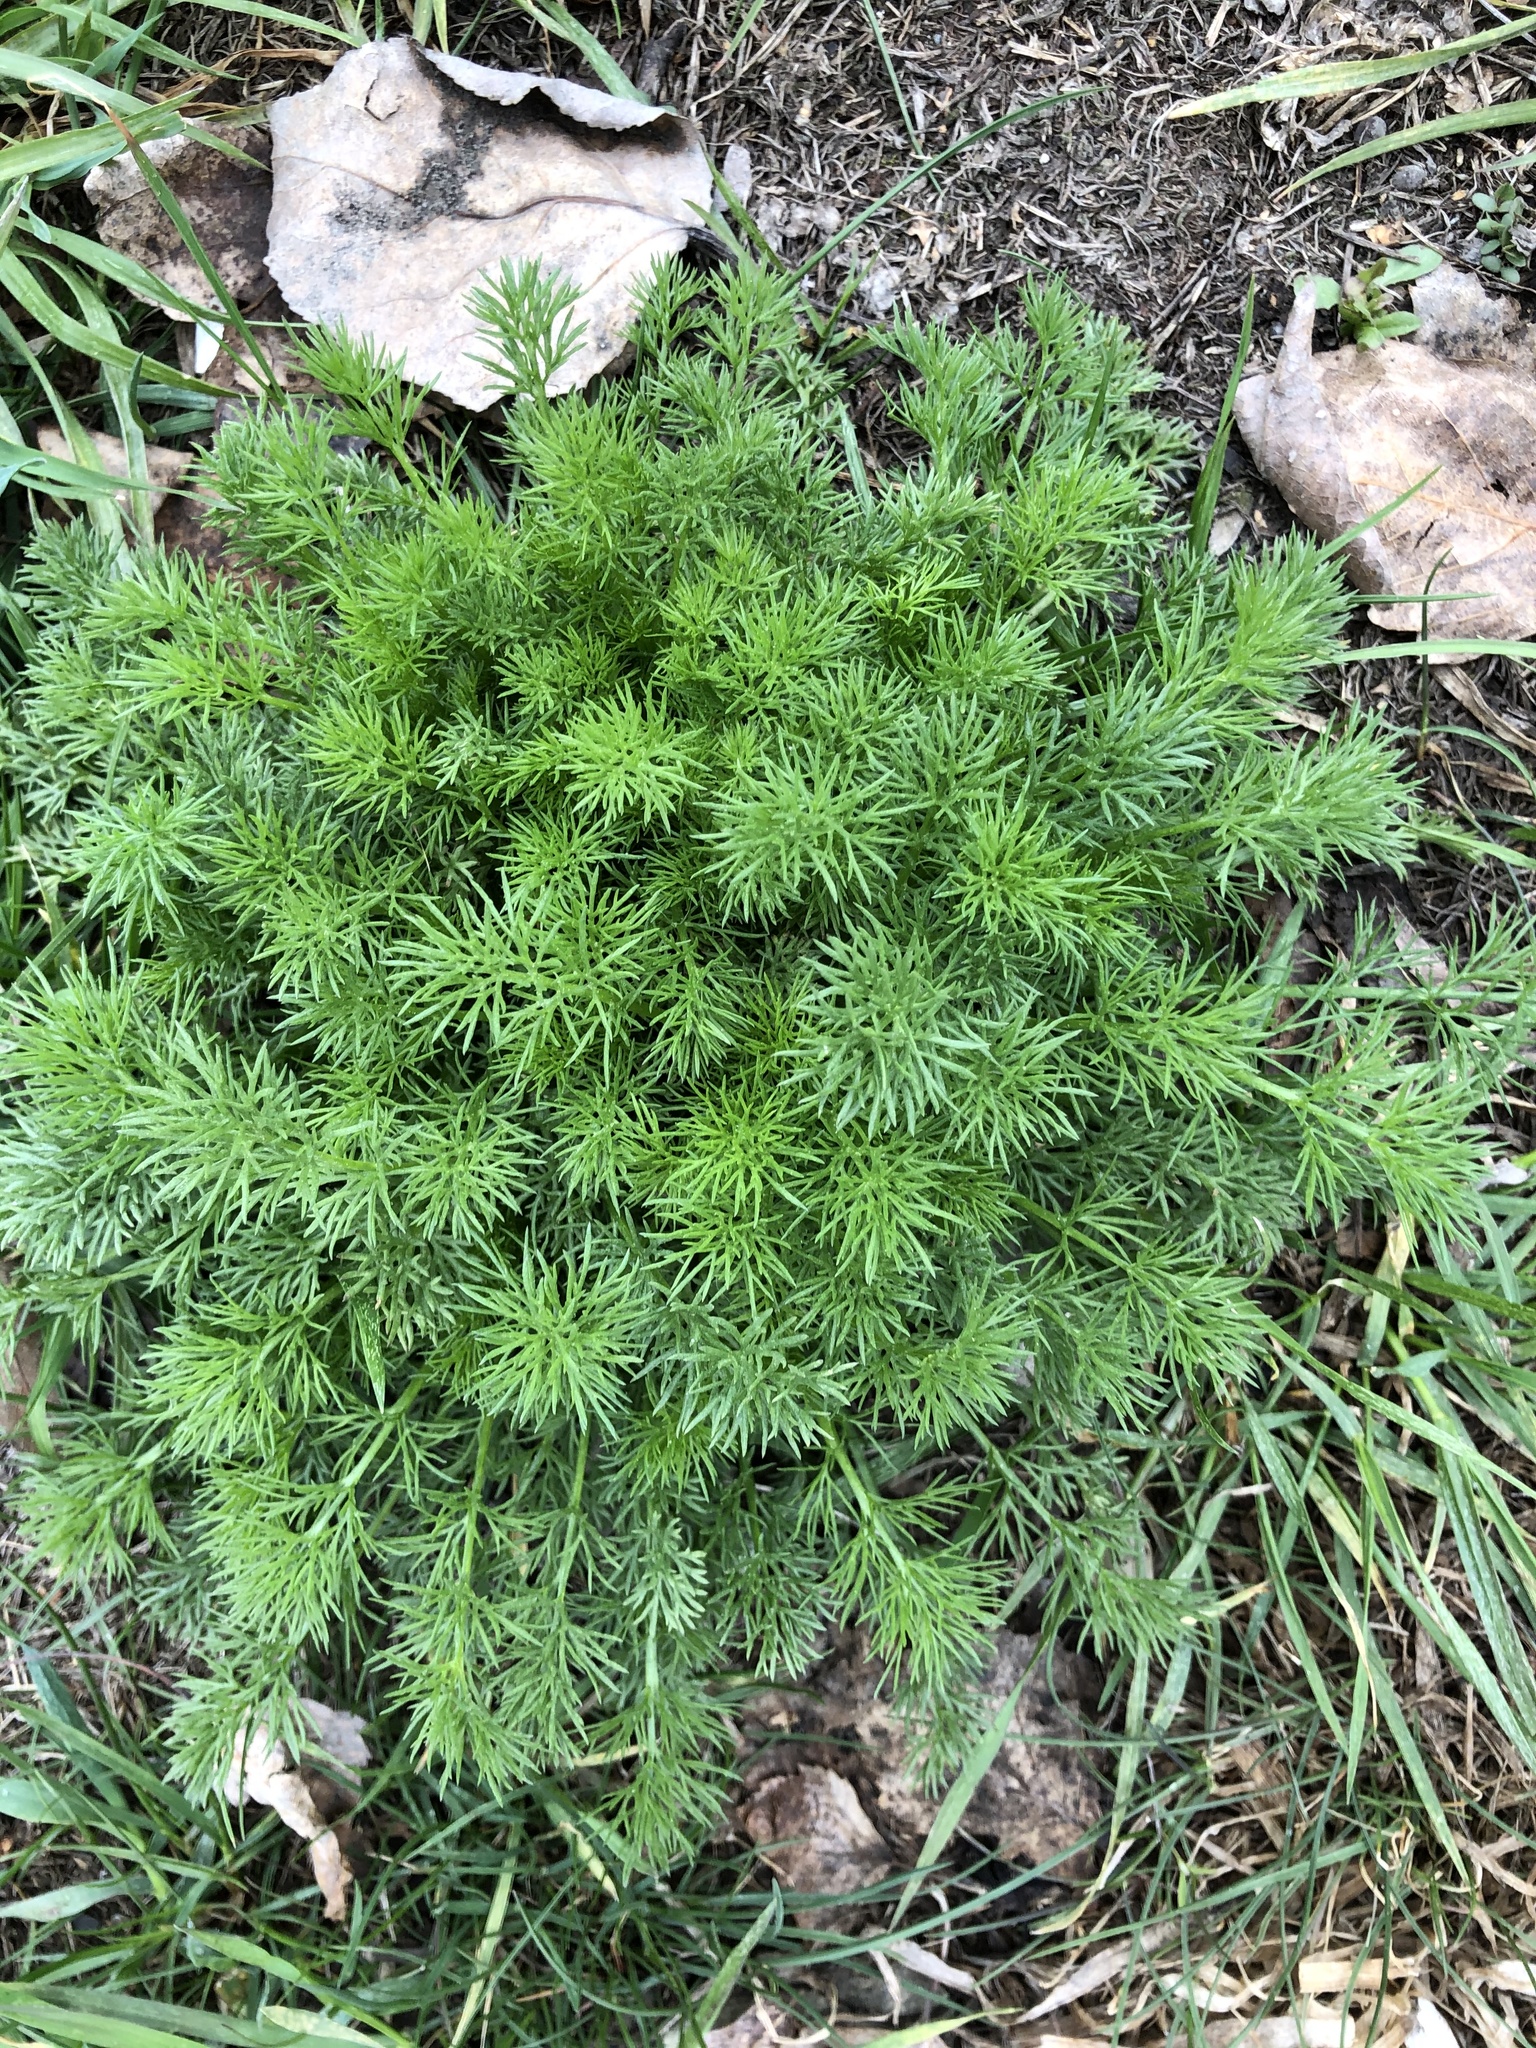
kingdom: Plantae
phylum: Tracheophyta
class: Magnoliopsida
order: Asterales
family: Asteraceae
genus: Tripleurospermum
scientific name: Tripleurospermum inodorum
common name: Scentless mayweed
